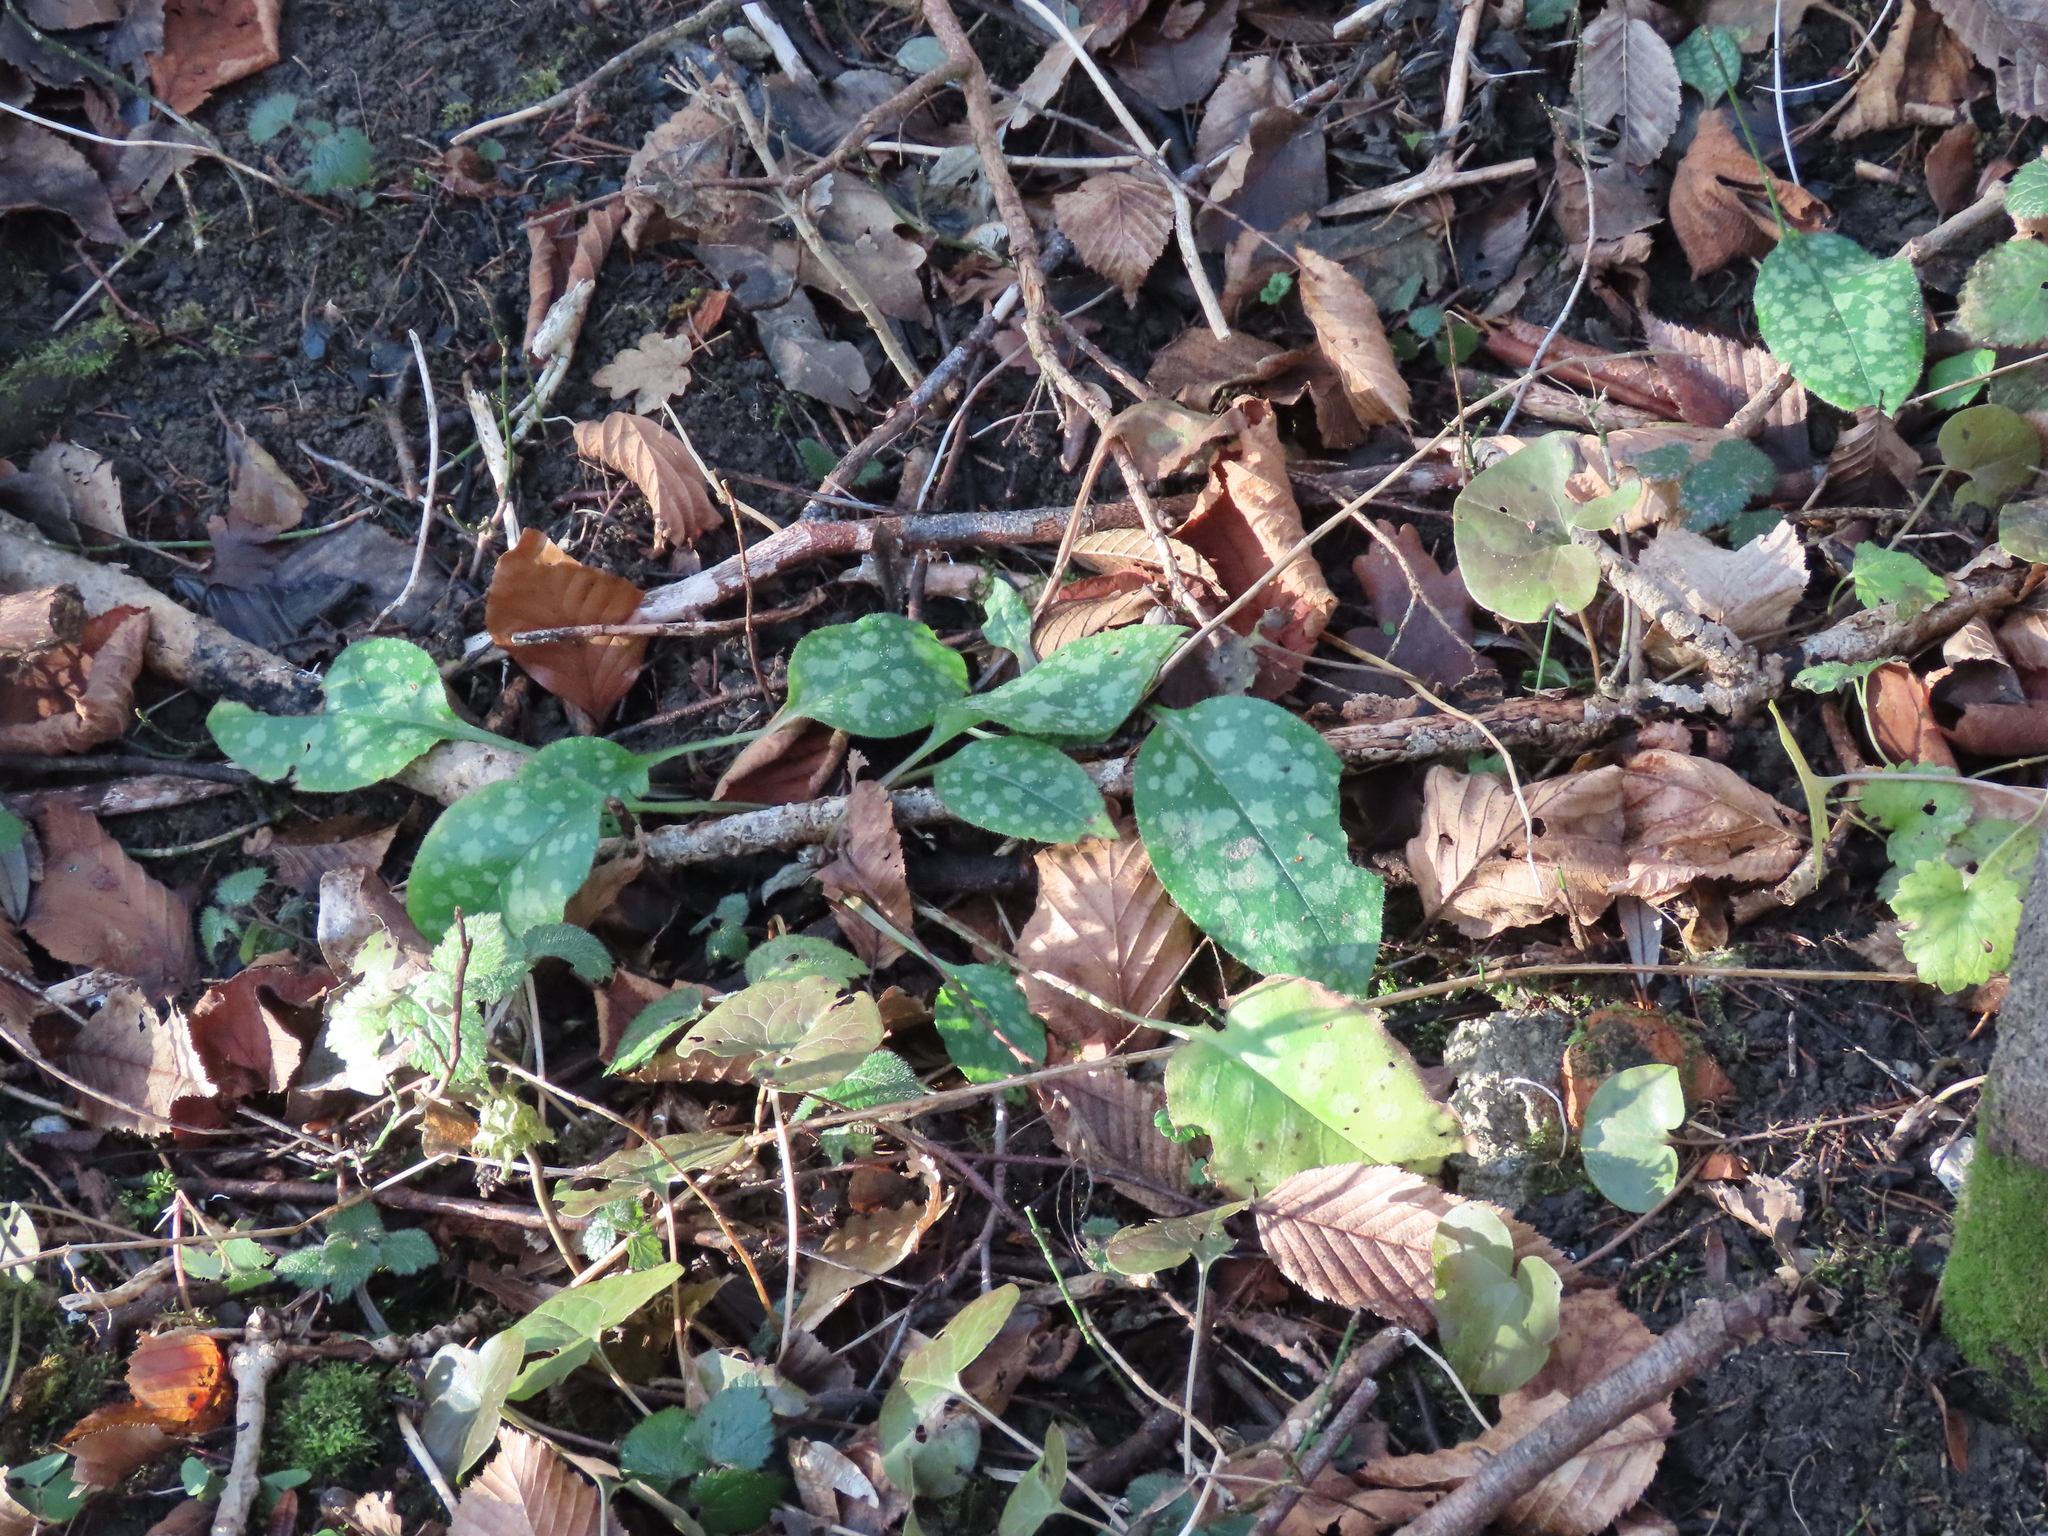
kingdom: Plantae
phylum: Tracheophyta
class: Magnoliopsida
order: Boraginales
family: Boraginaceae
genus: Pulmonaria
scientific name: Pulmonaria officinalis
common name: Lungwort
